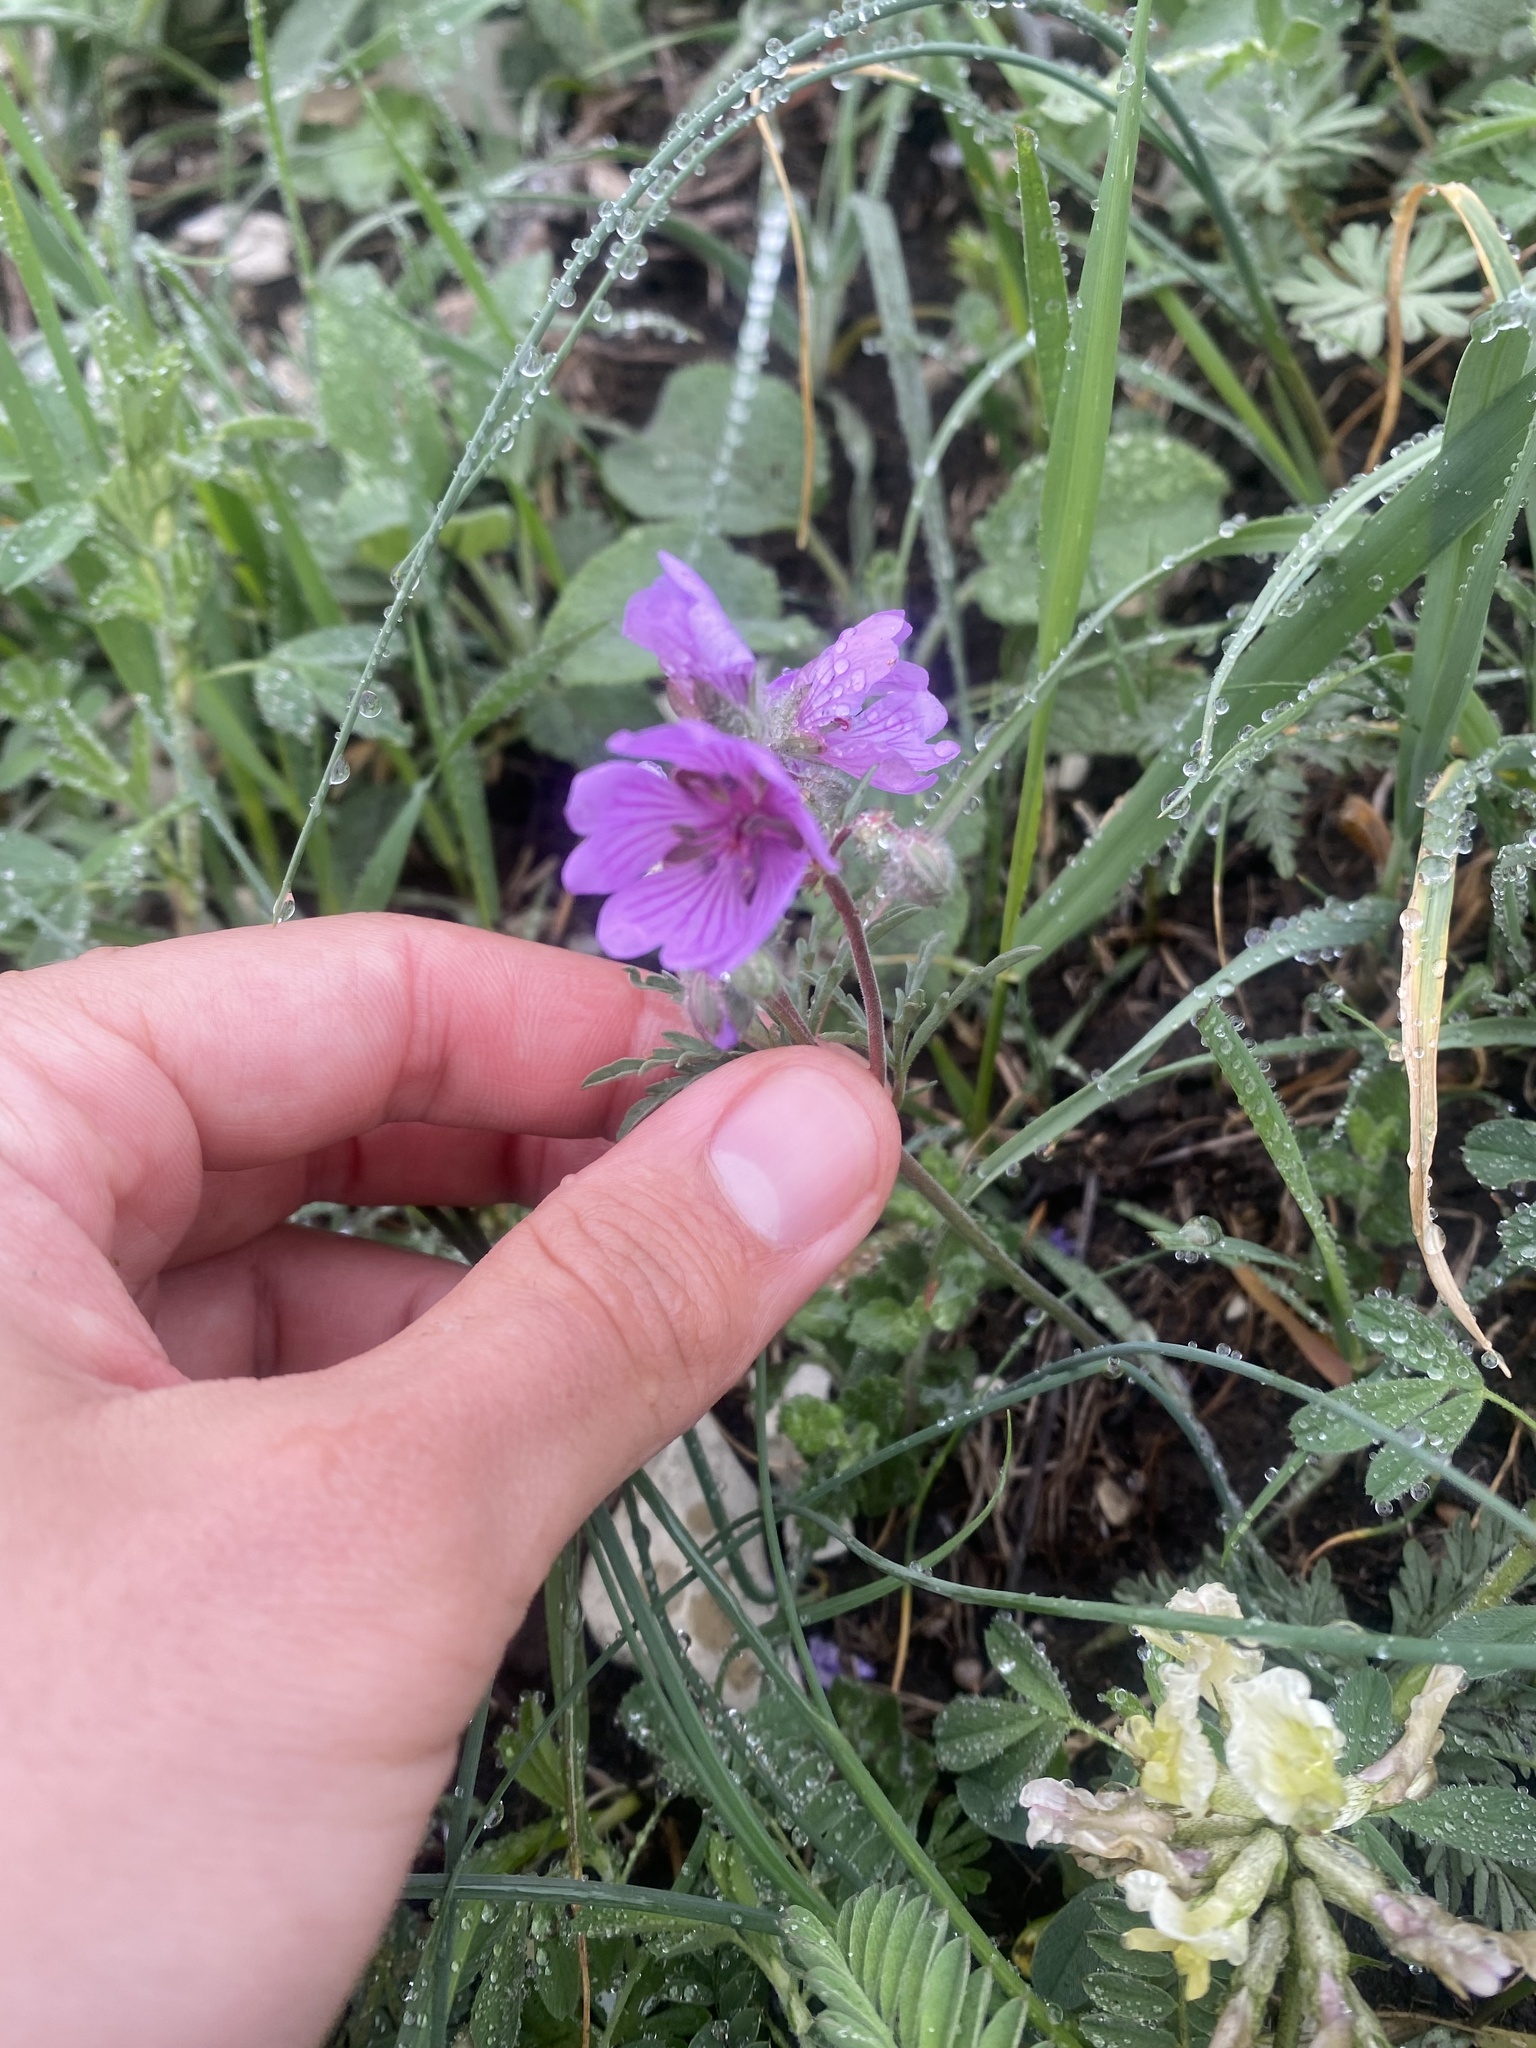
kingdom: Plantae
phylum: Tracheophyta
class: Magnoliopsida
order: Geraniales
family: Geraniaceae
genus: Geranium
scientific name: Geranium tuberosum
